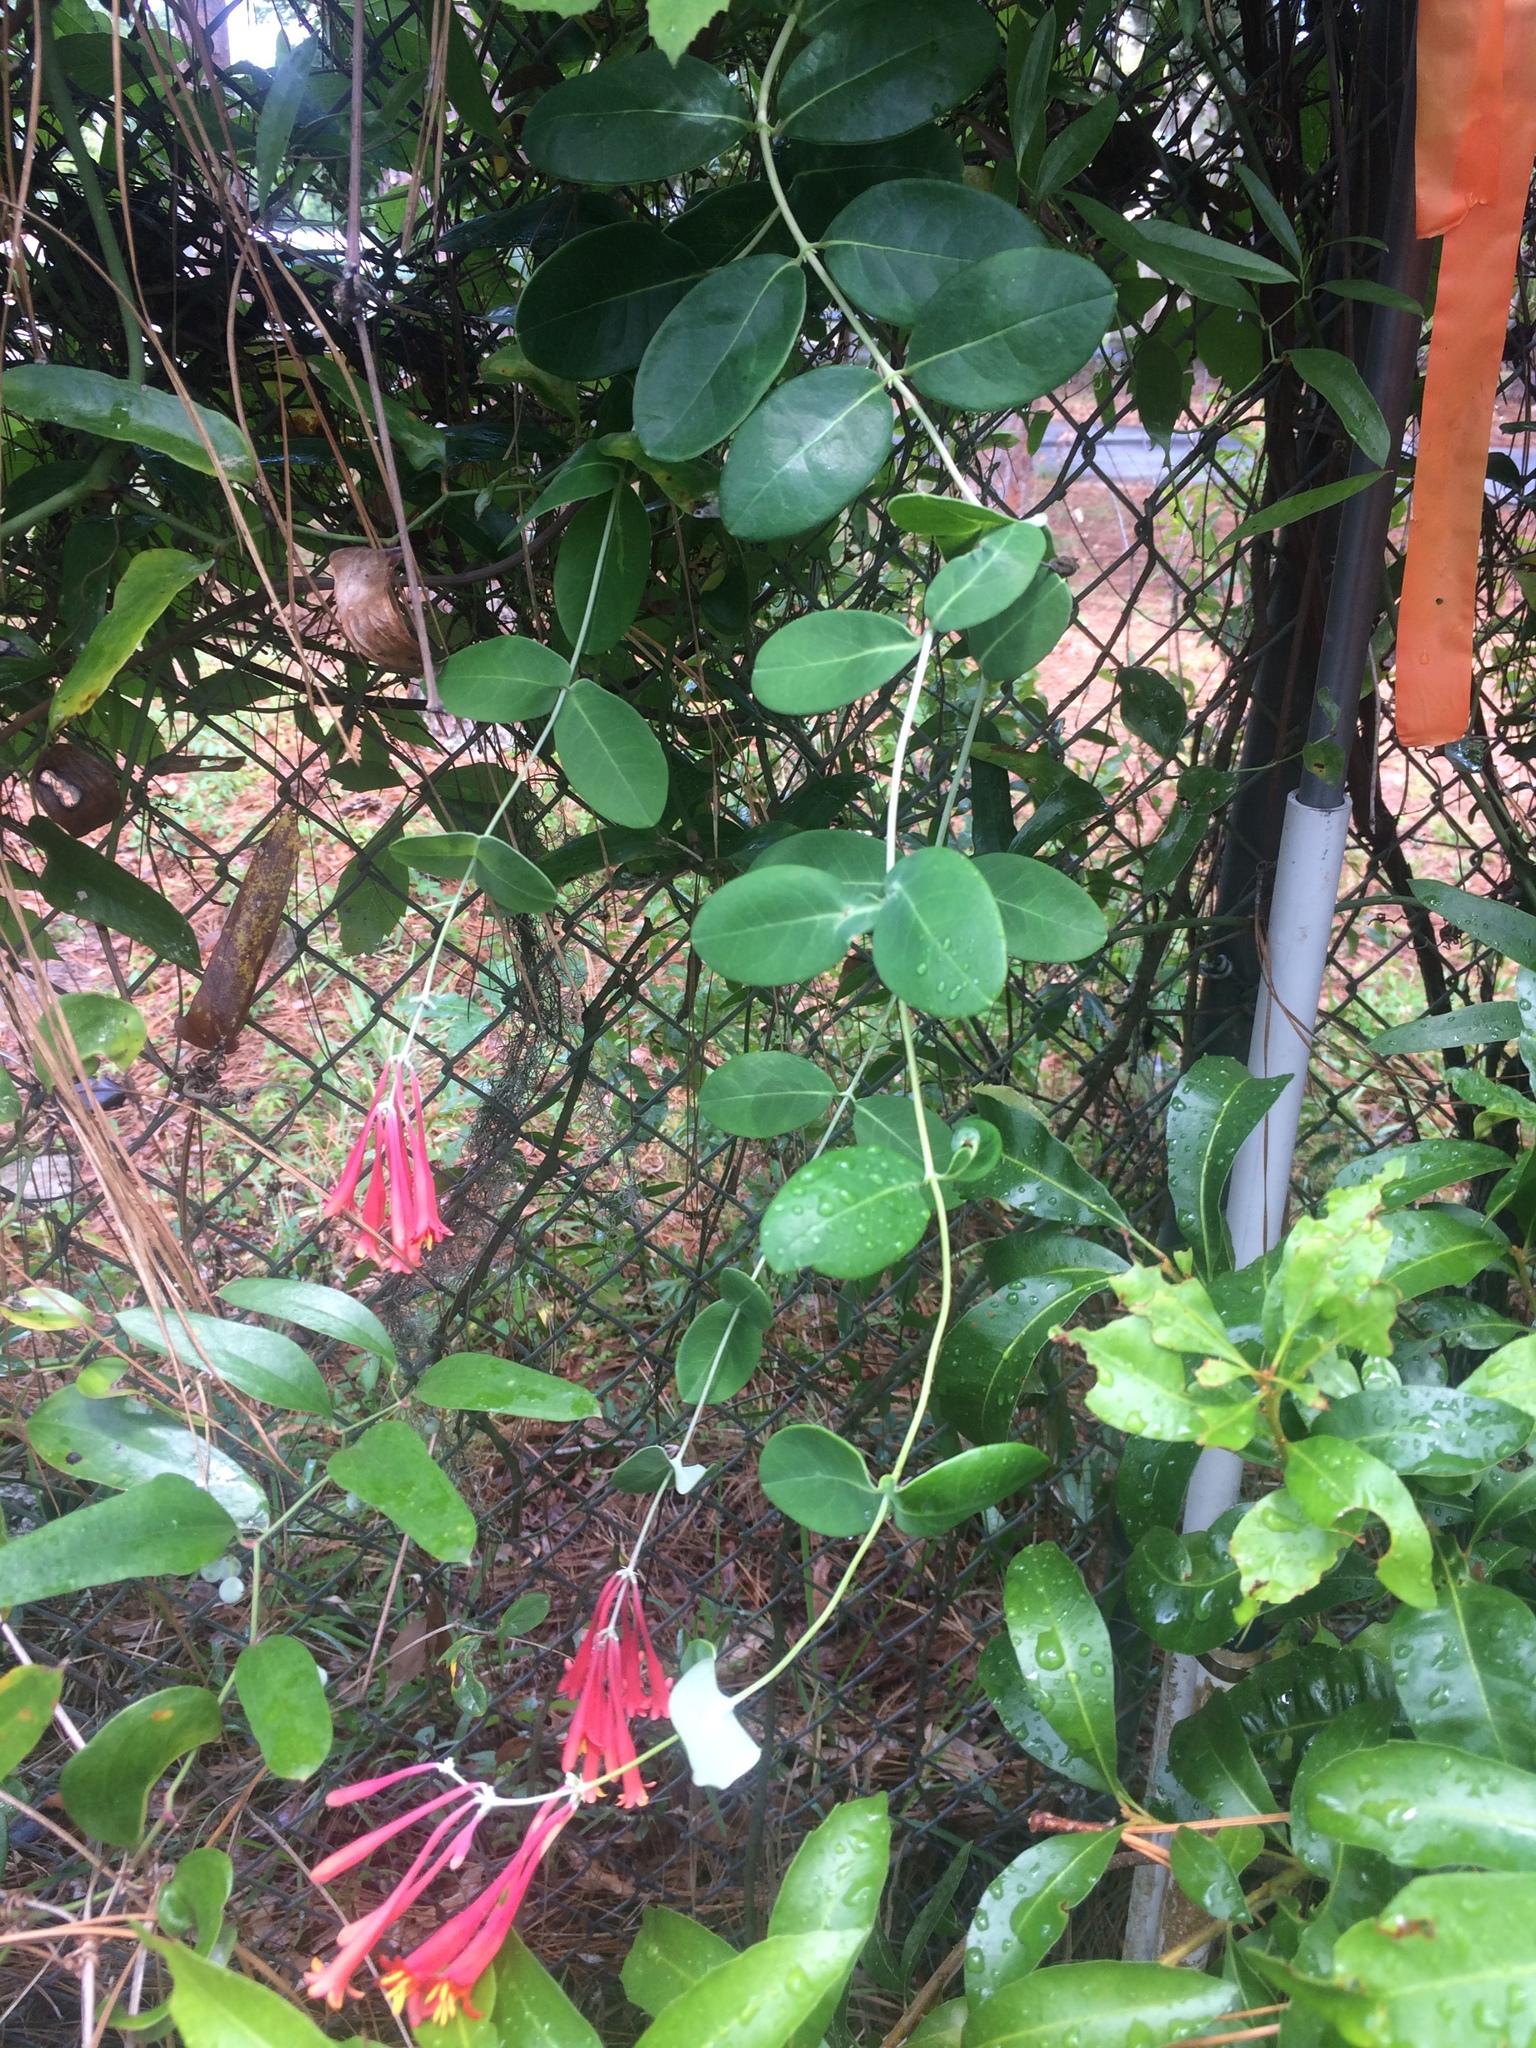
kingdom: Plantae
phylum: Tracheophyta
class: Magnoliopsida
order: Dipsacales
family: Caprifoliaceae
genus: Lonicera
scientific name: Lonicera sempervirens
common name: Coral honeysuckle
